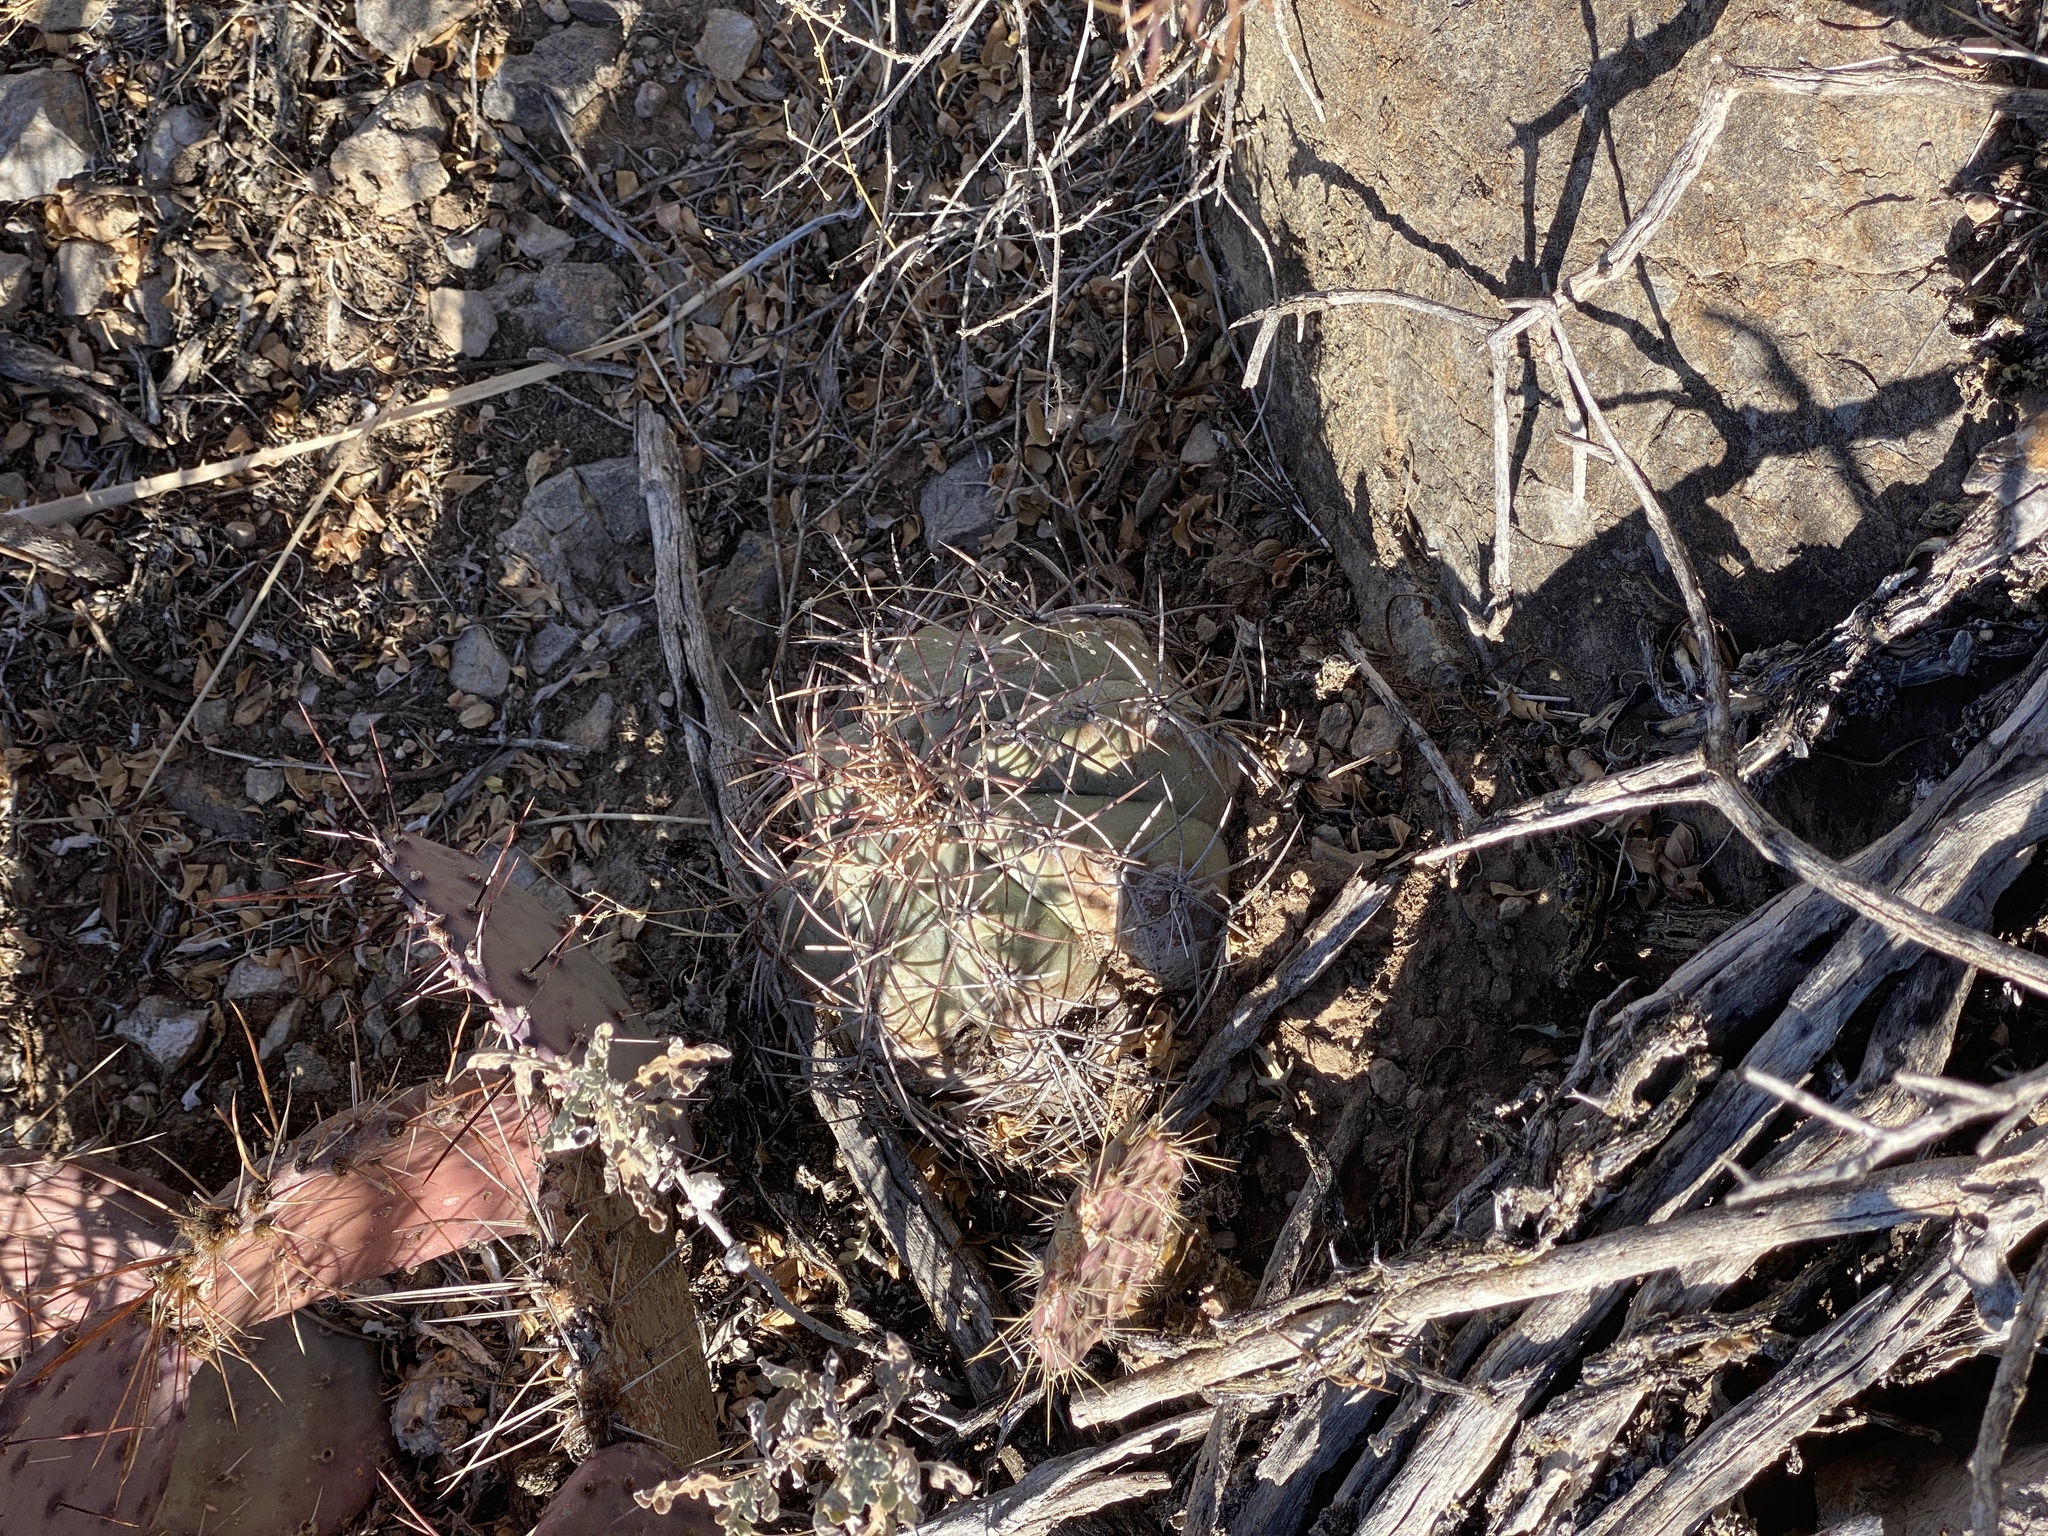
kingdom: Plantae
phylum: Tracheophyta
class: Magnoliopsida
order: Caryophyllales
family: Cactaceae
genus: Echinocactus
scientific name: Echinocactus horizonthalonius
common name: Devilshead
